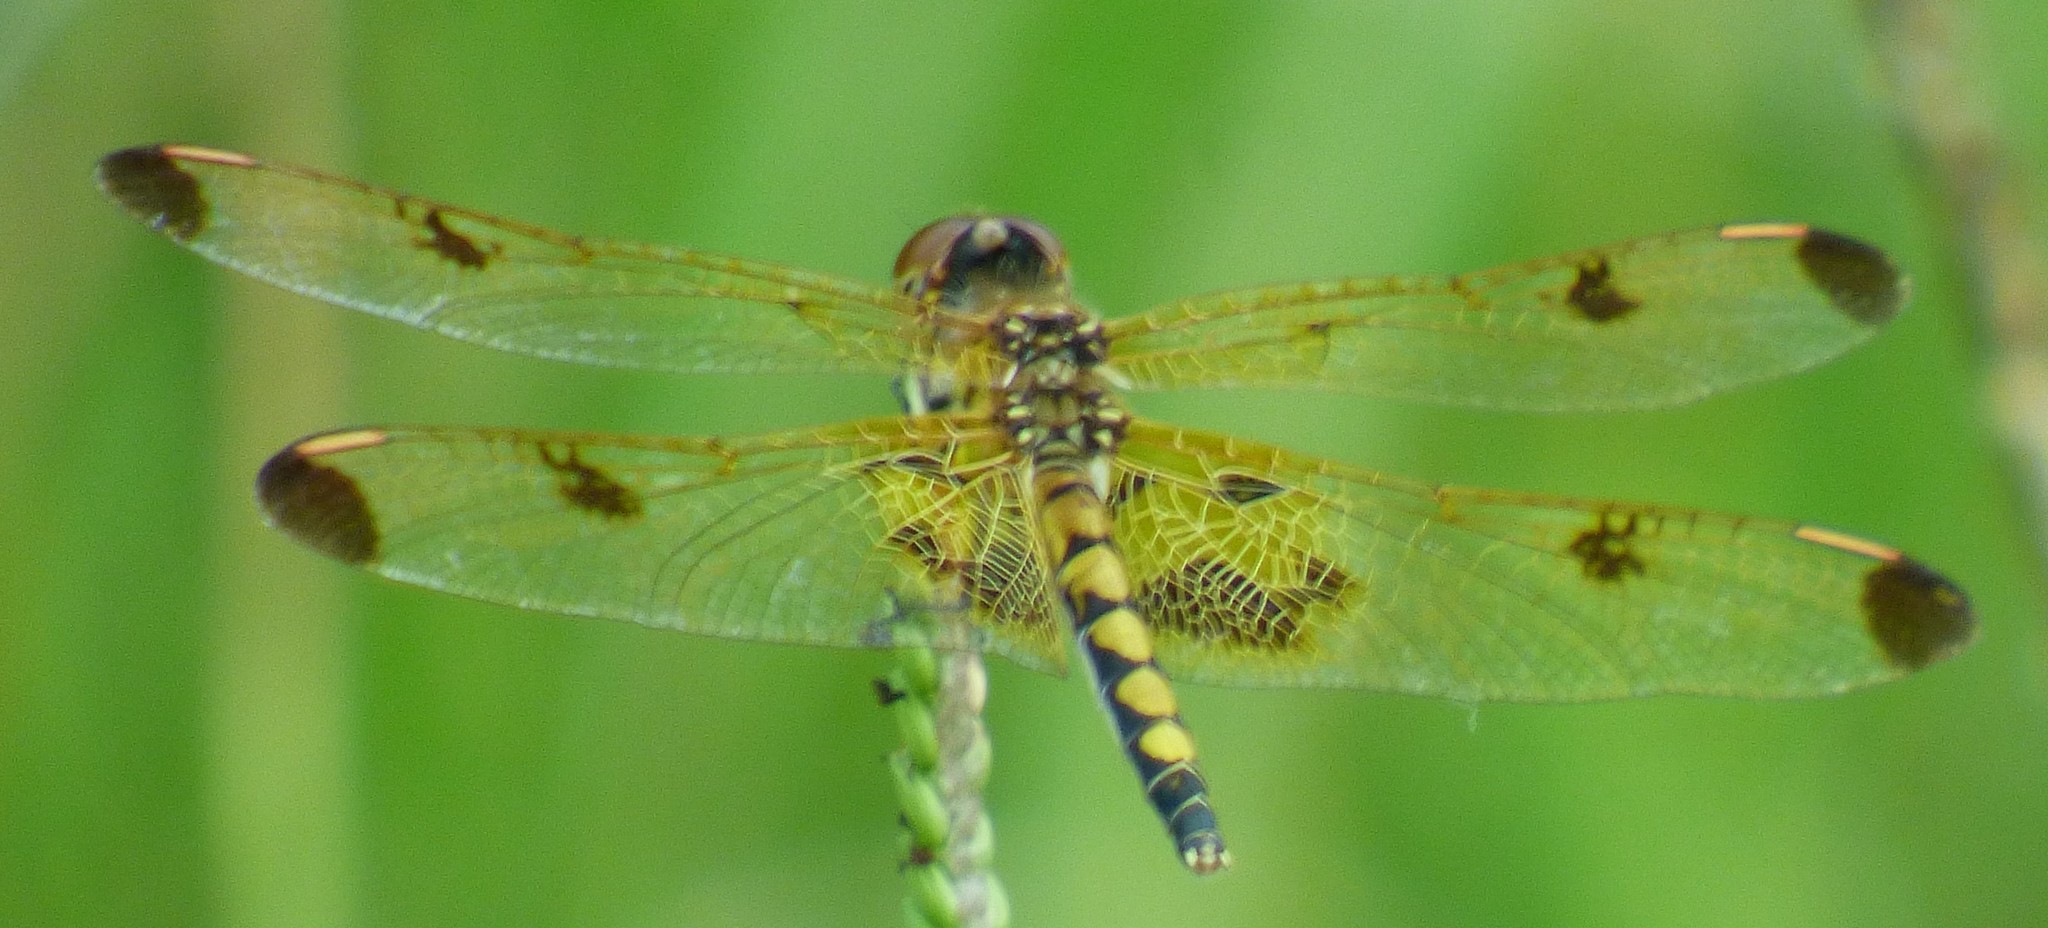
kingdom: Animalia
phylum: Arthropoda
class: Insecta
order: Odonata
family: Libellulidae
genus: Celithemis
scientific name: Celithemis elisa
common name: Calico pennant
